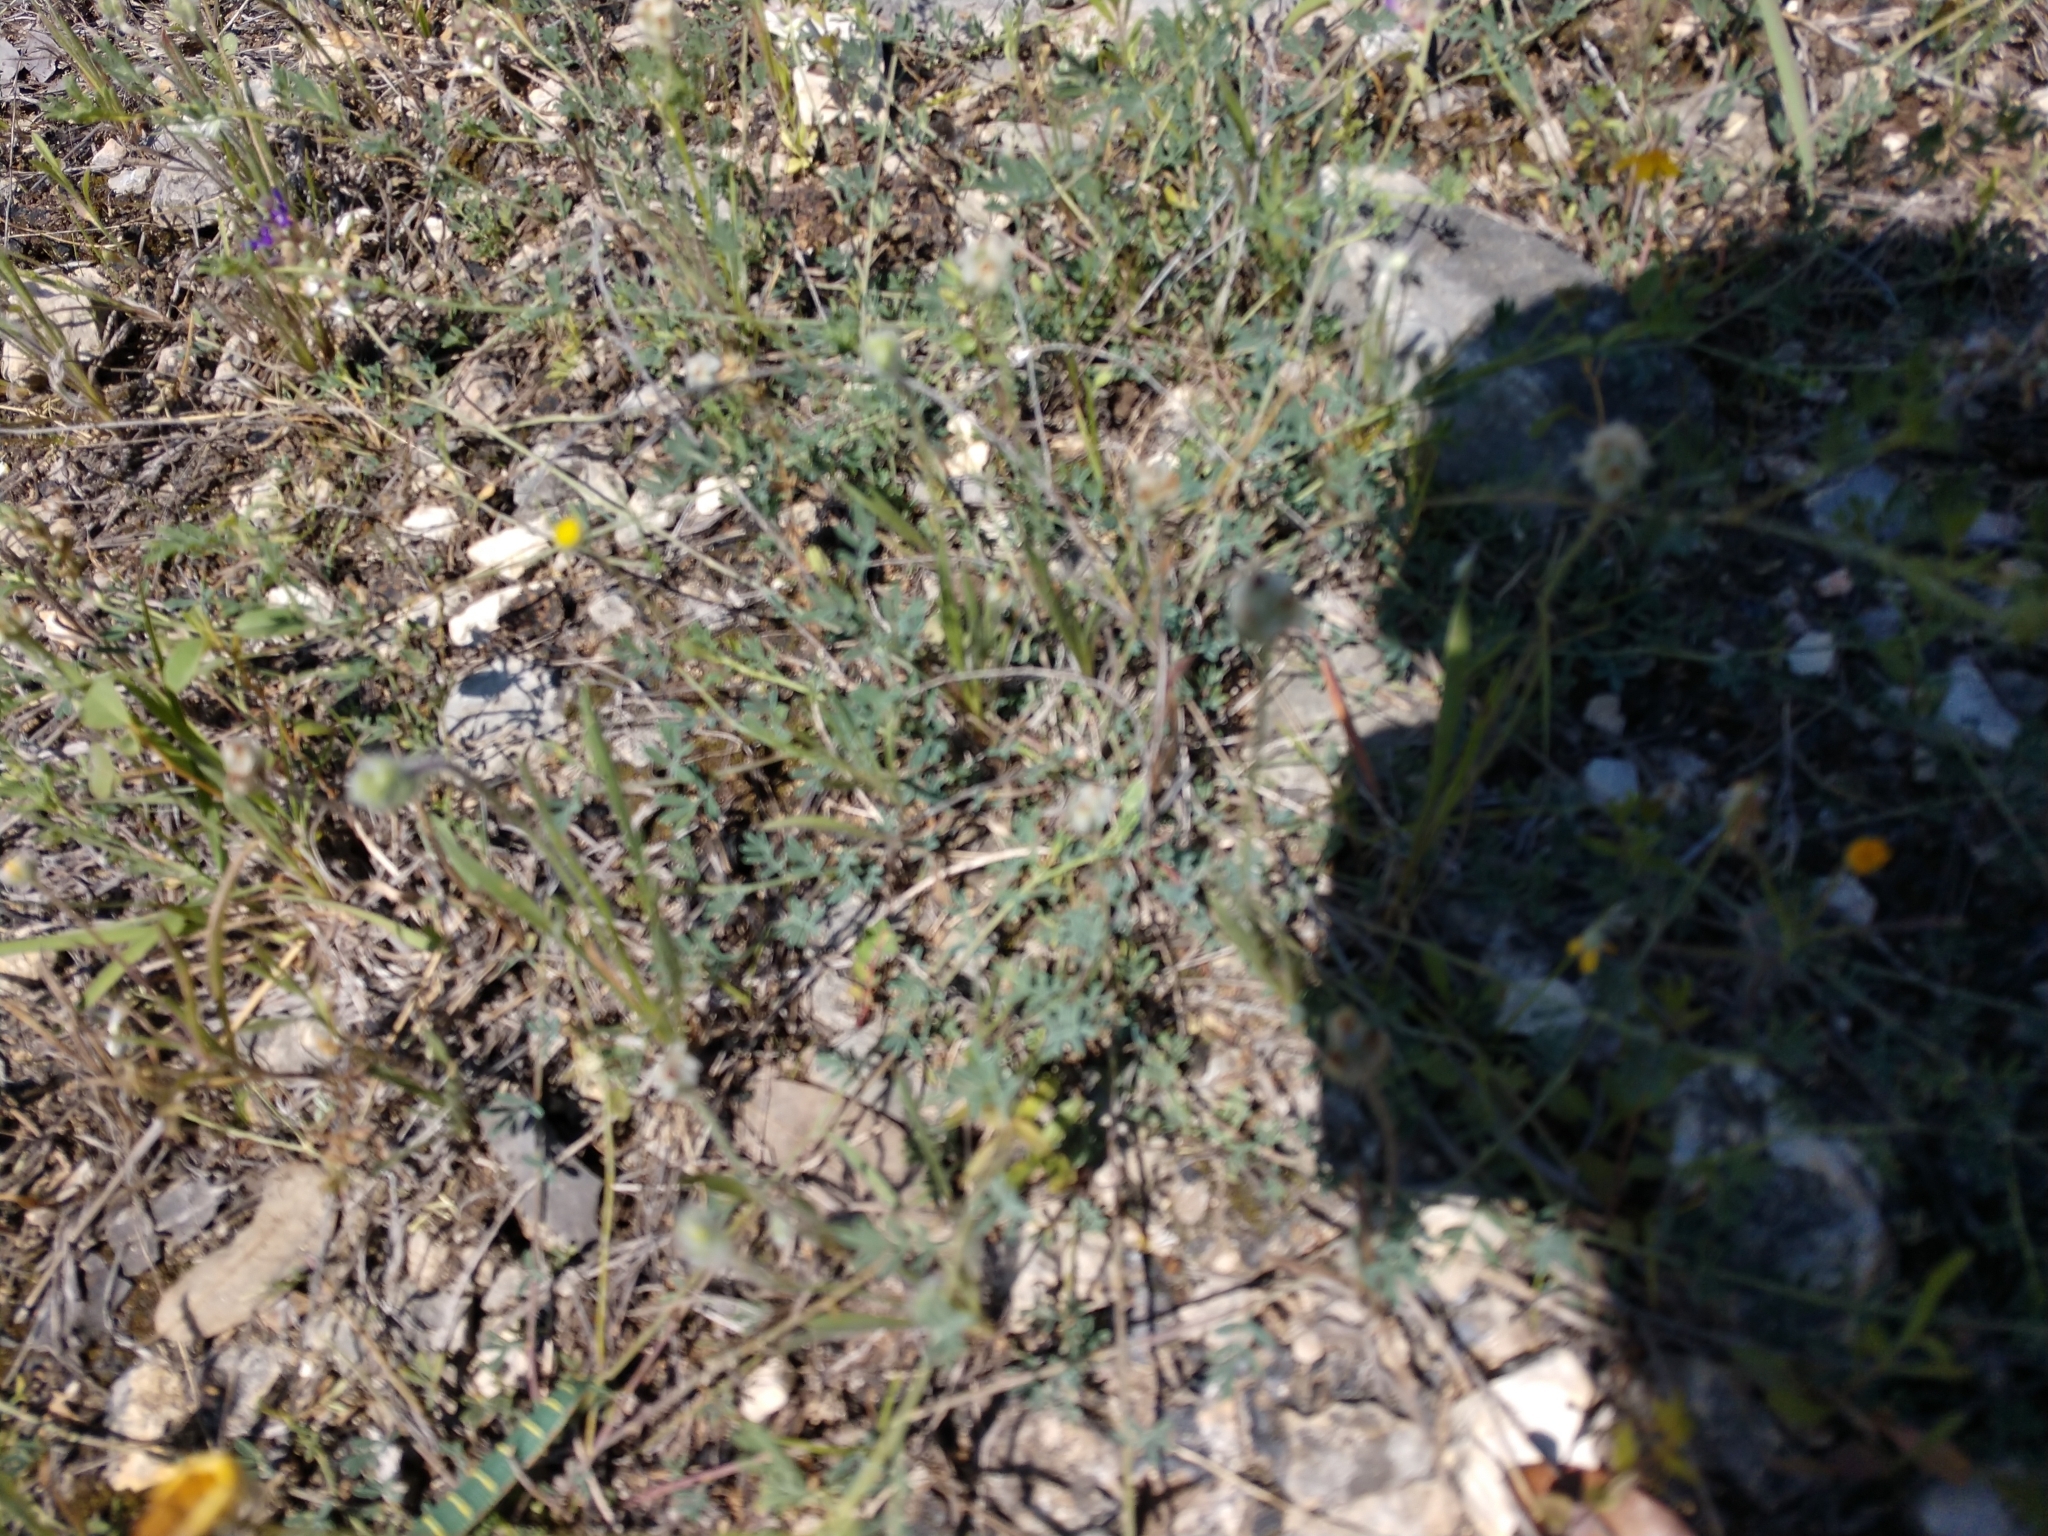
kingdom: Plantae
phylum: Tracheophyta
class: Magnoliopsida
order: Fabales
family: Fabaceae
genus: Dalea
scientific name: Dalea pogonathera
